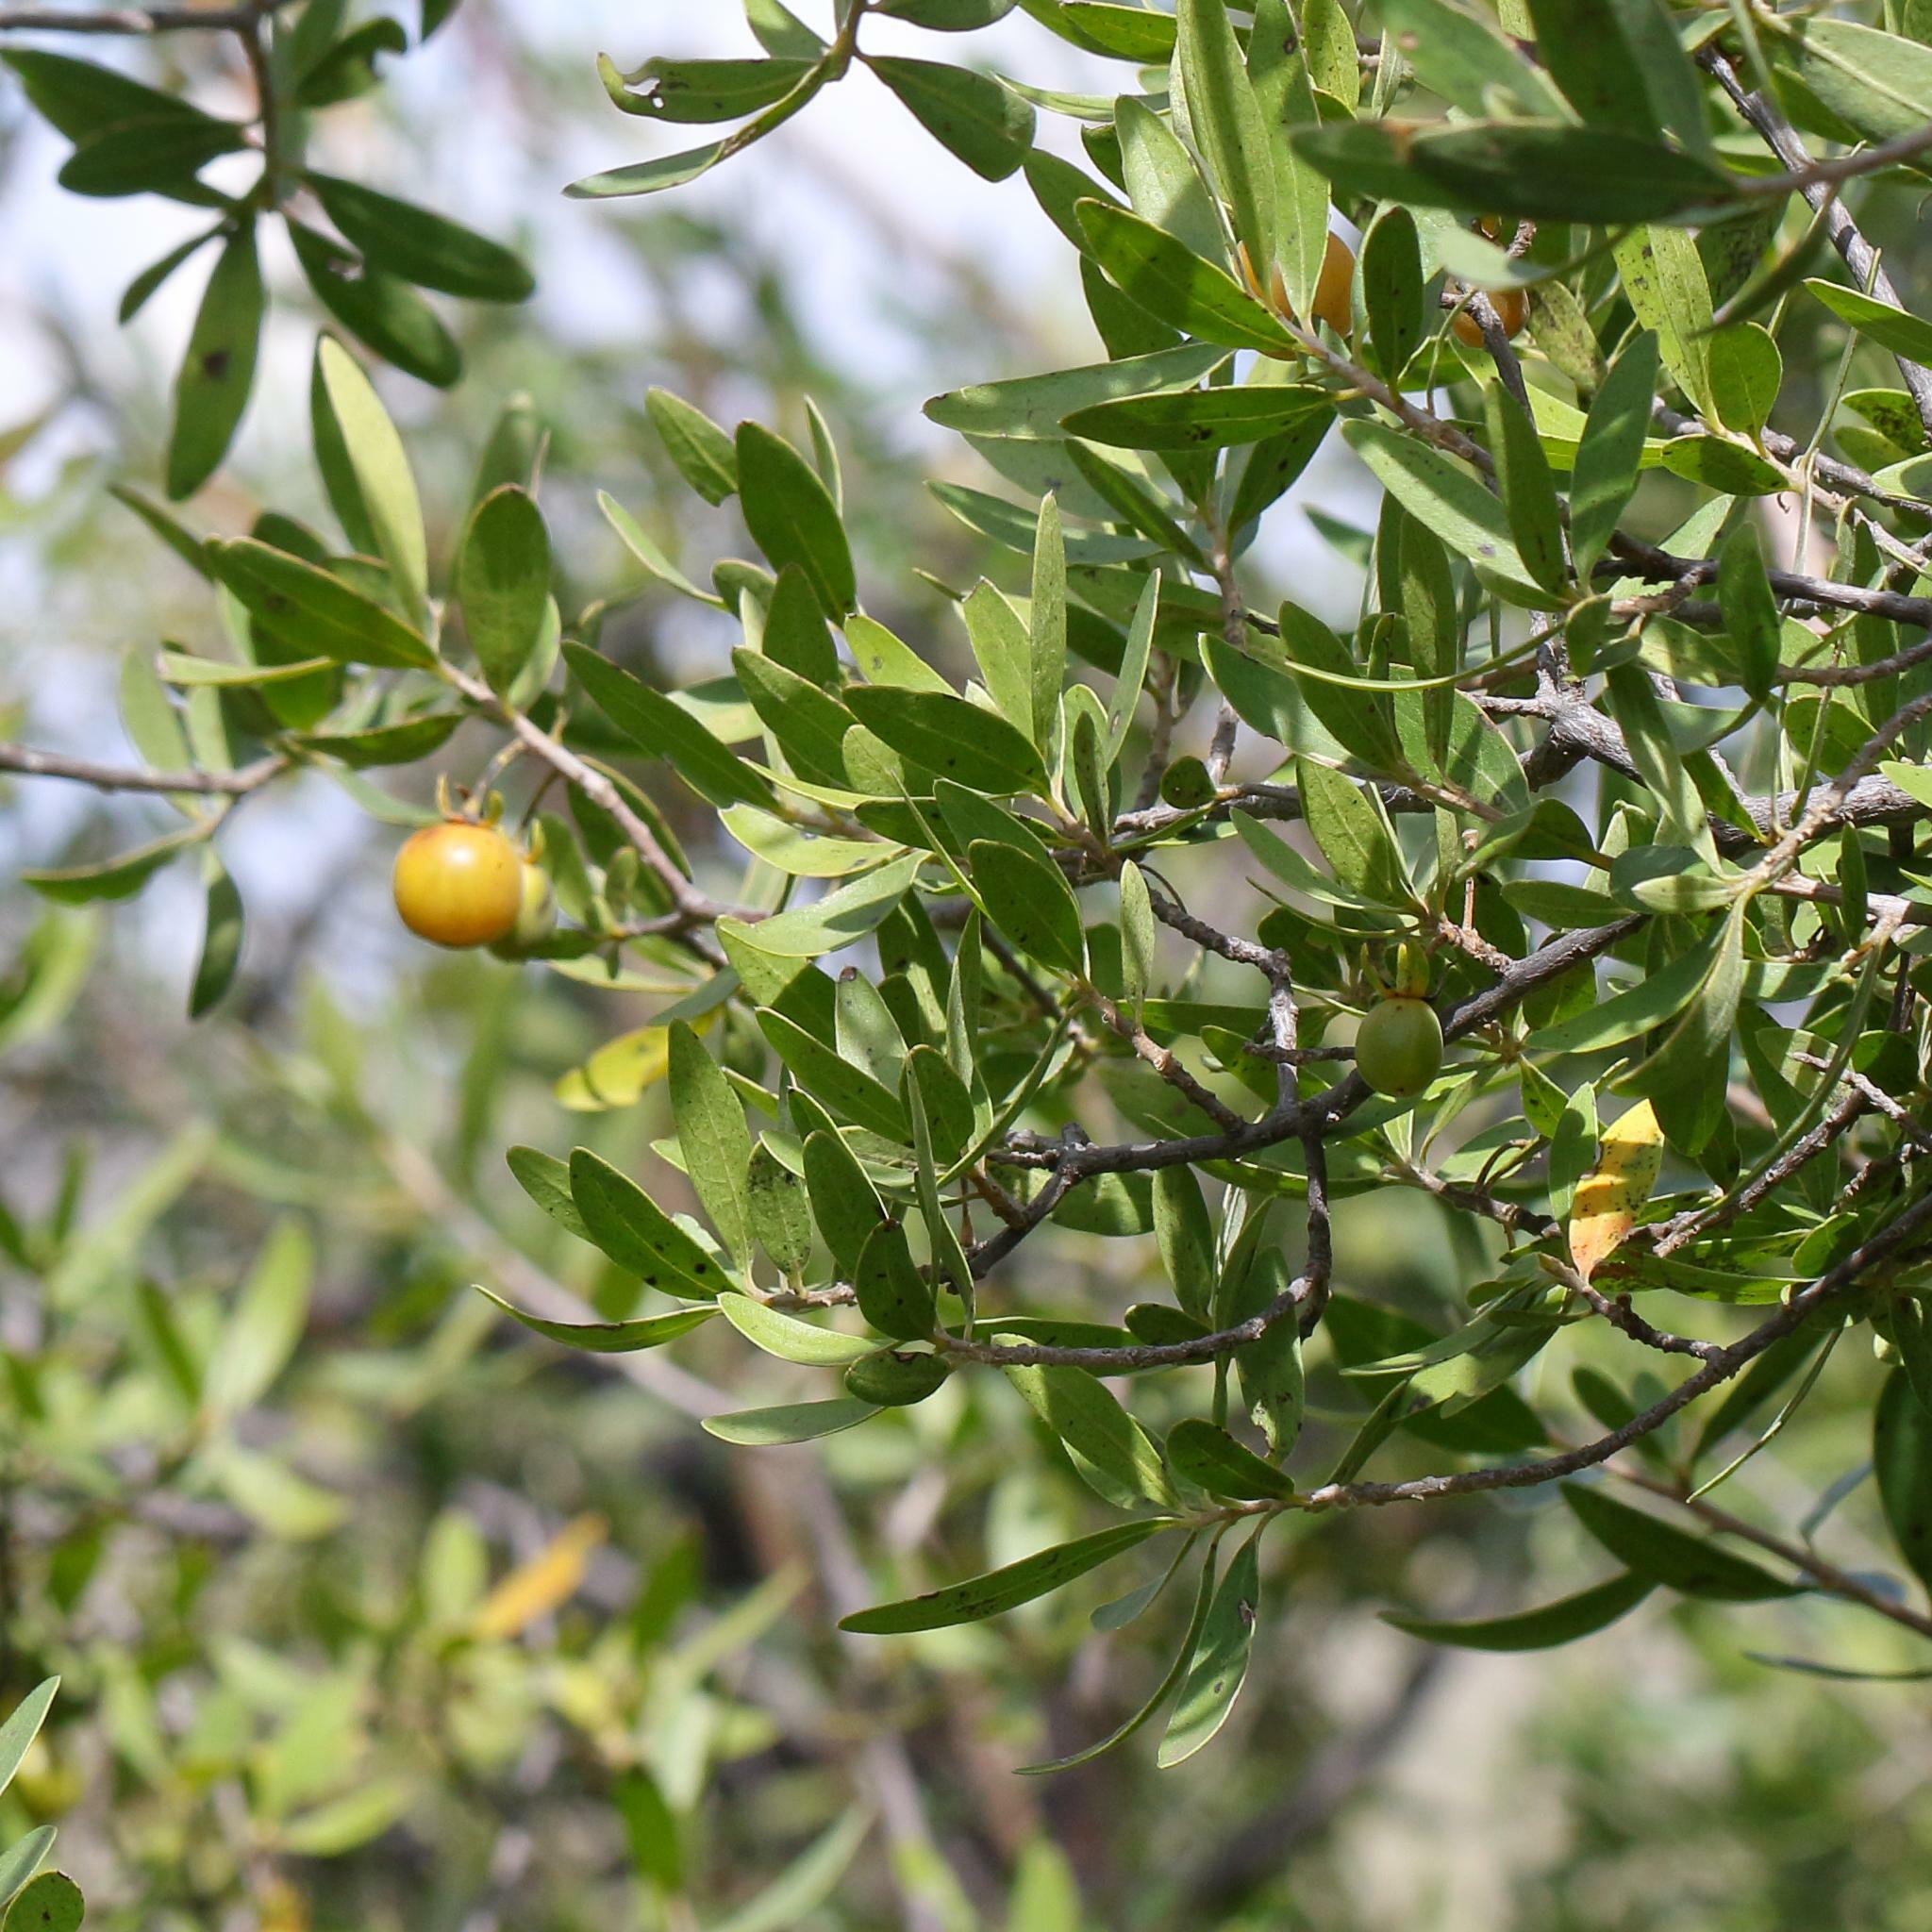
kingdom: Plantae
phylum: Tracheophyta
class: Magnoliopsida
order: Ericales
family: Ebenaceae
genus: Diospyros
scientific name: Diospyros lycioides
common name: Red star apple
